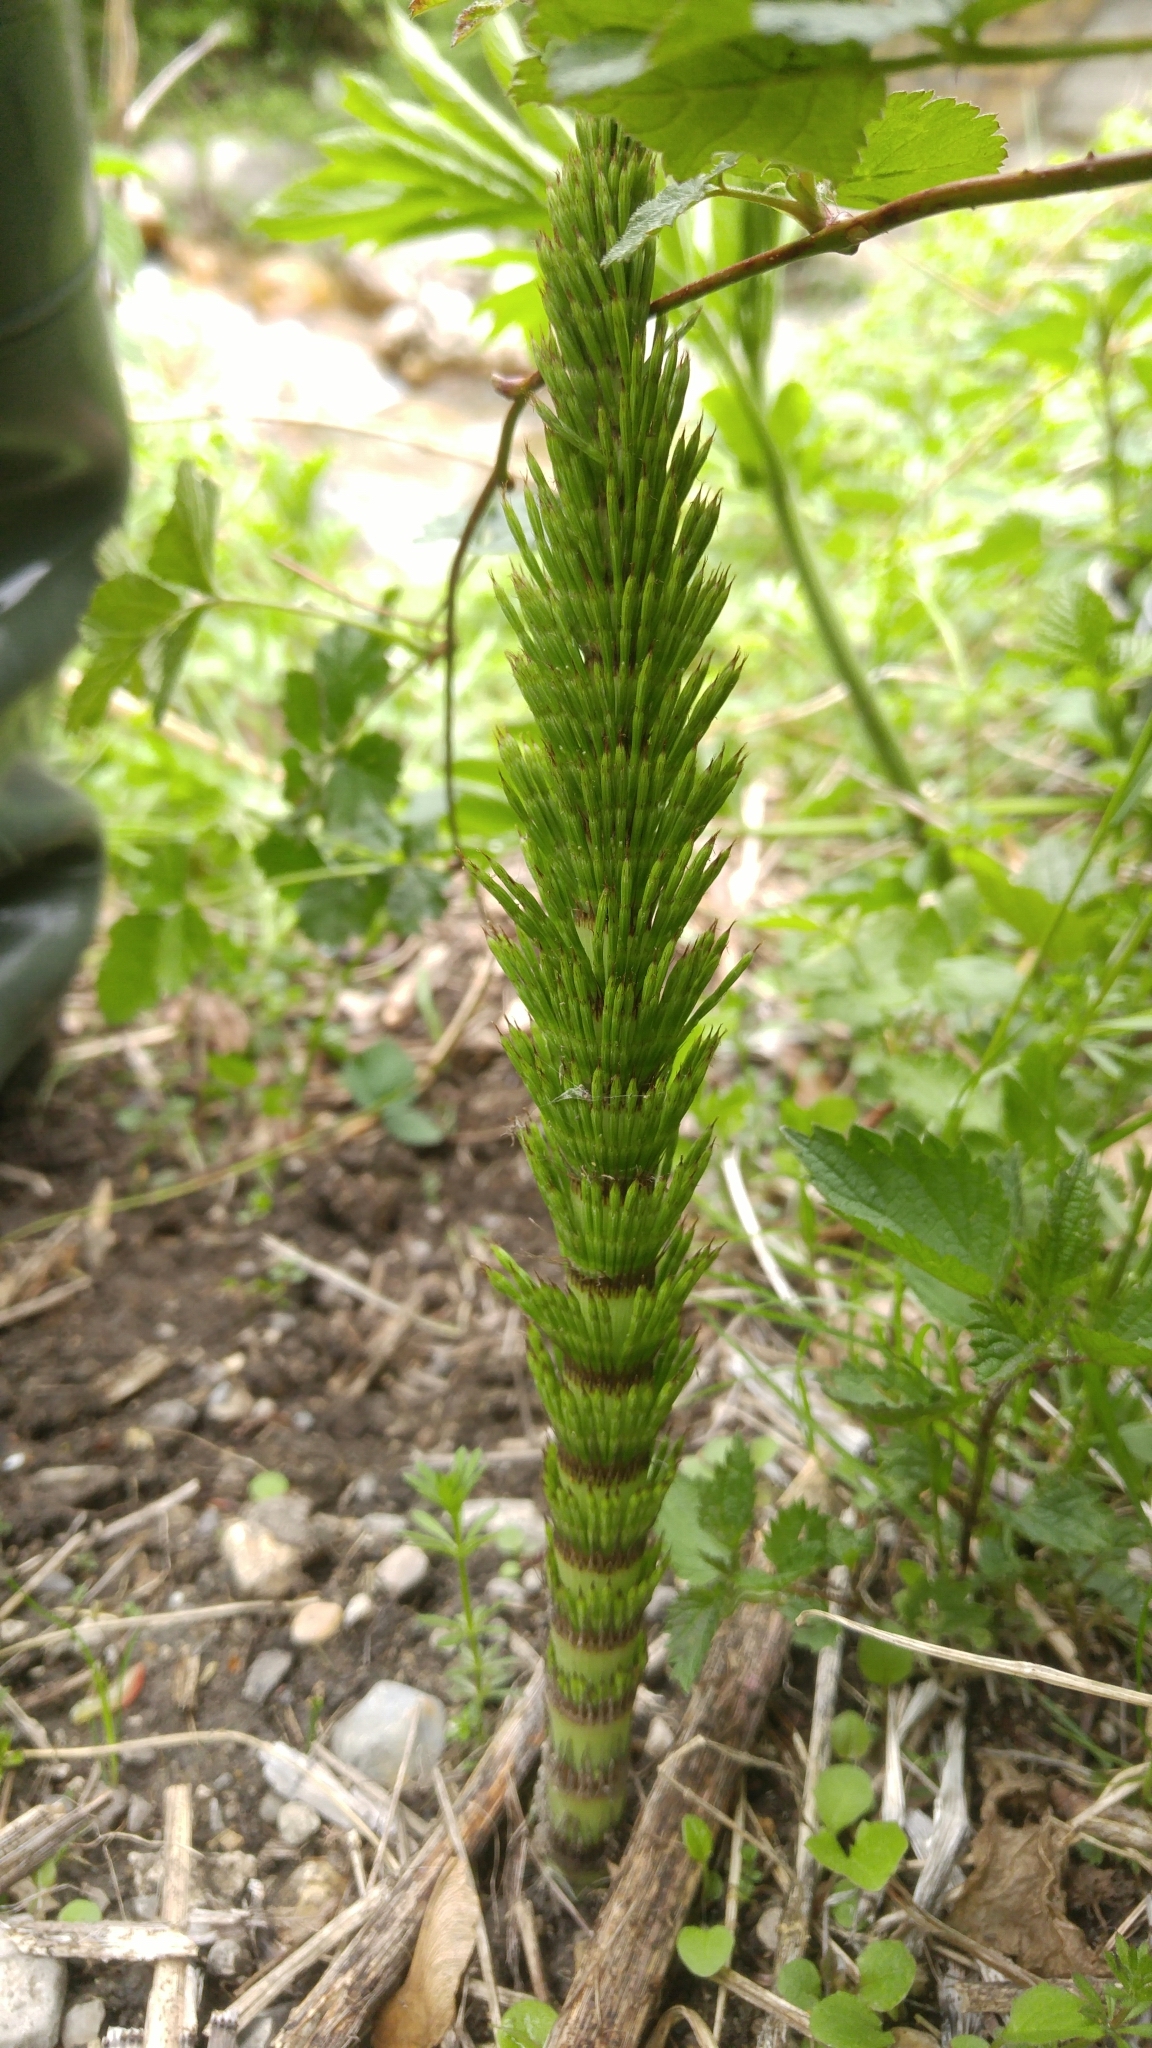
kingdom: Plantae
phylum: Tracheophyta
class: Polypodiopsida
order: Equisetales
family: Equisetaceae
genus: Equisetum
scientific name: Equisetum telmateia
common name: Great horsetail
